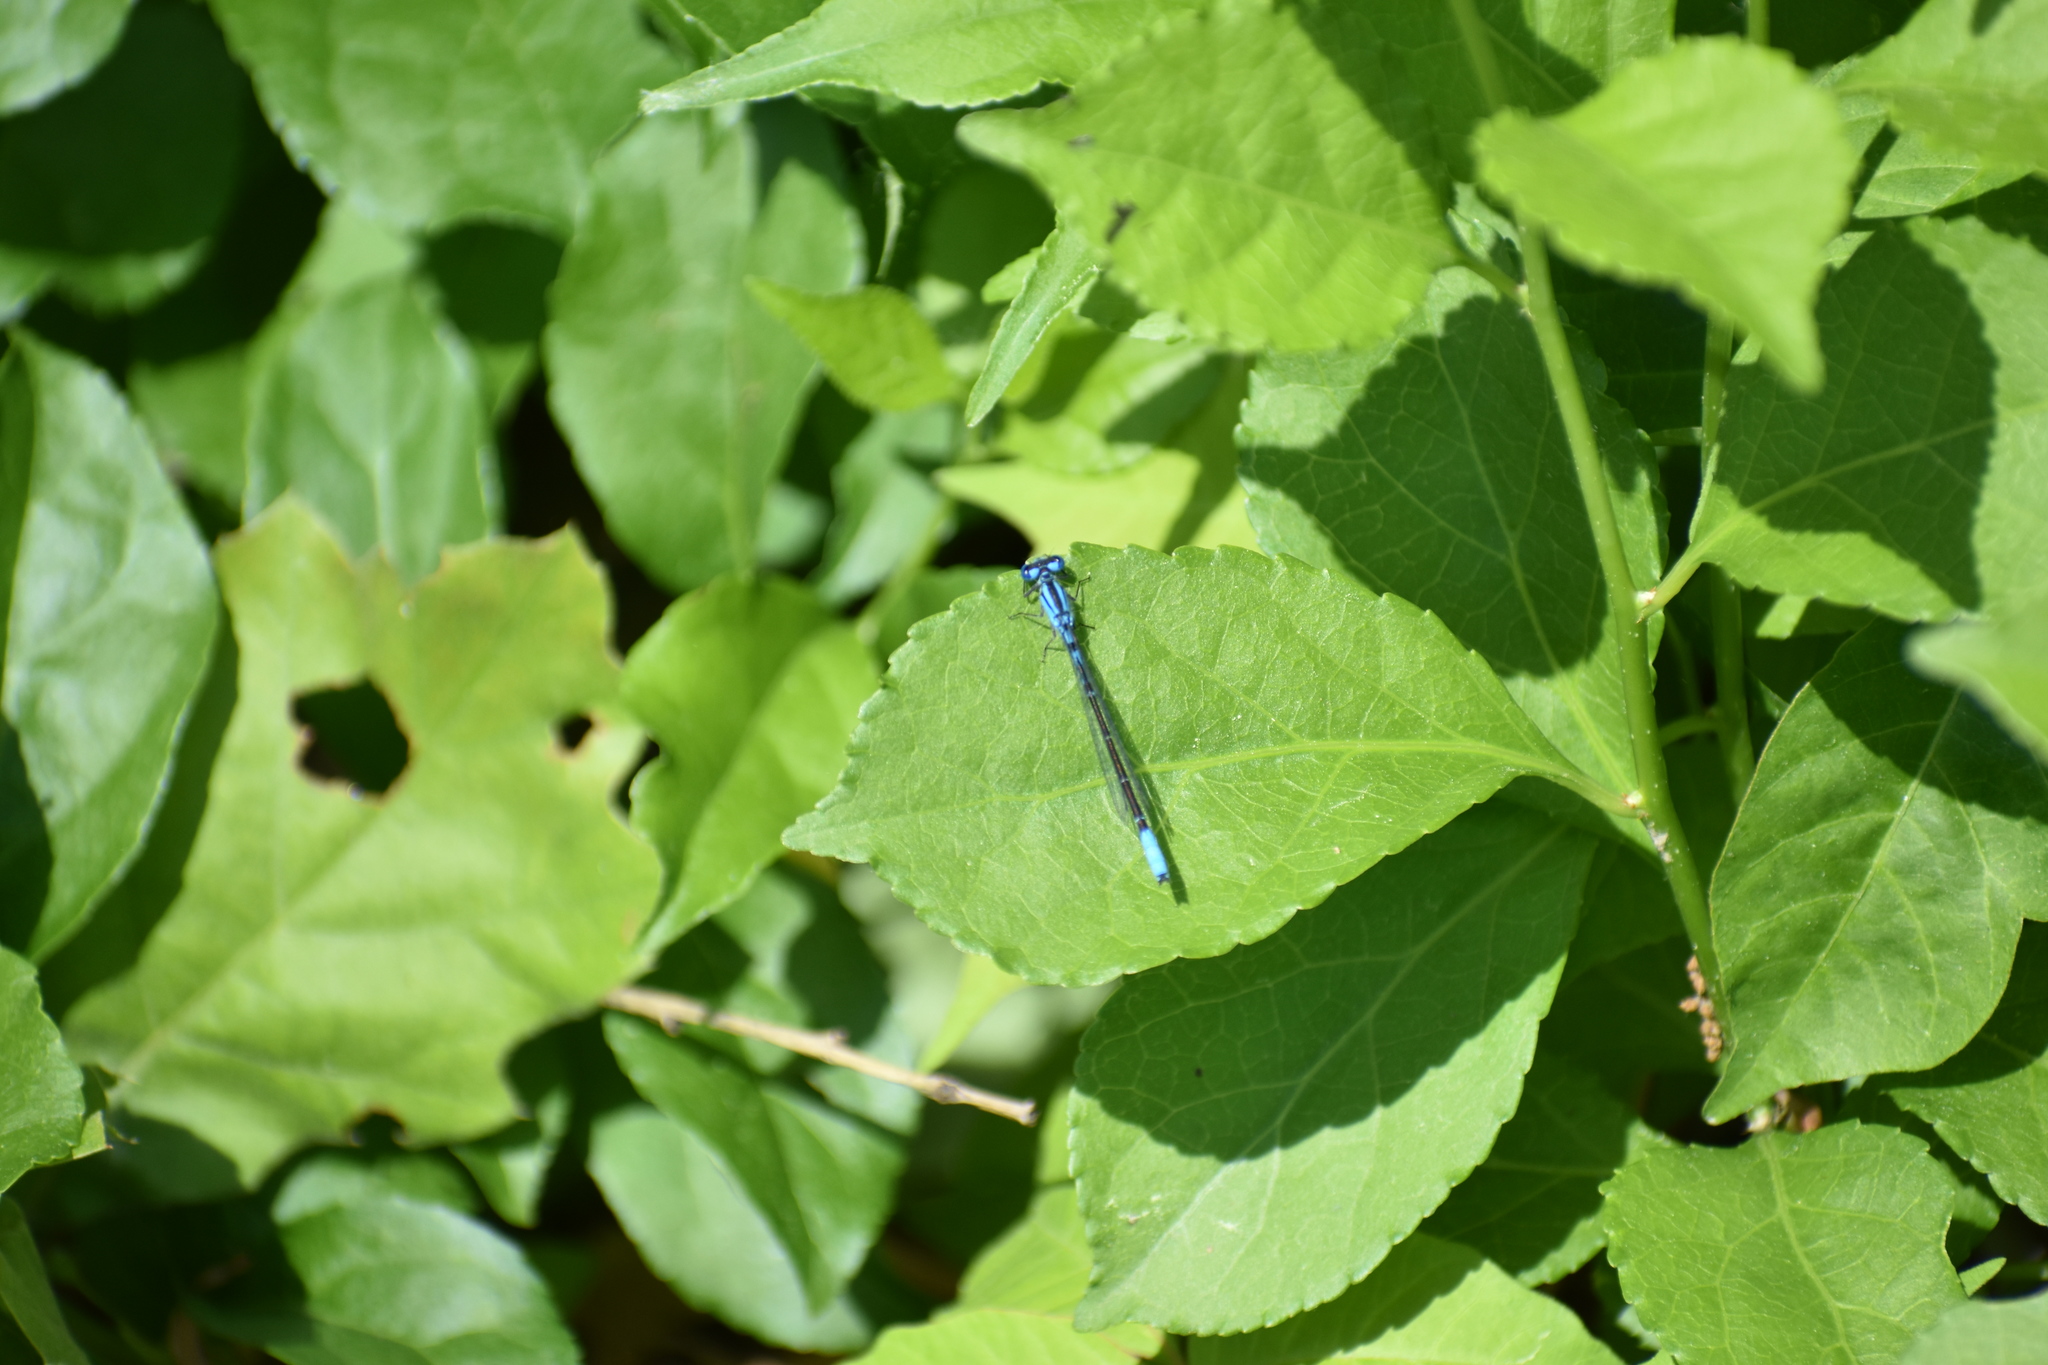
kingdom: Animalia
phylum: Arthropoda
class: Insecta
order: Odonata
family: Coenagrionidae
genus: Enallagma
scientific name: Enallagma aspersum
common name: Azure bluet
